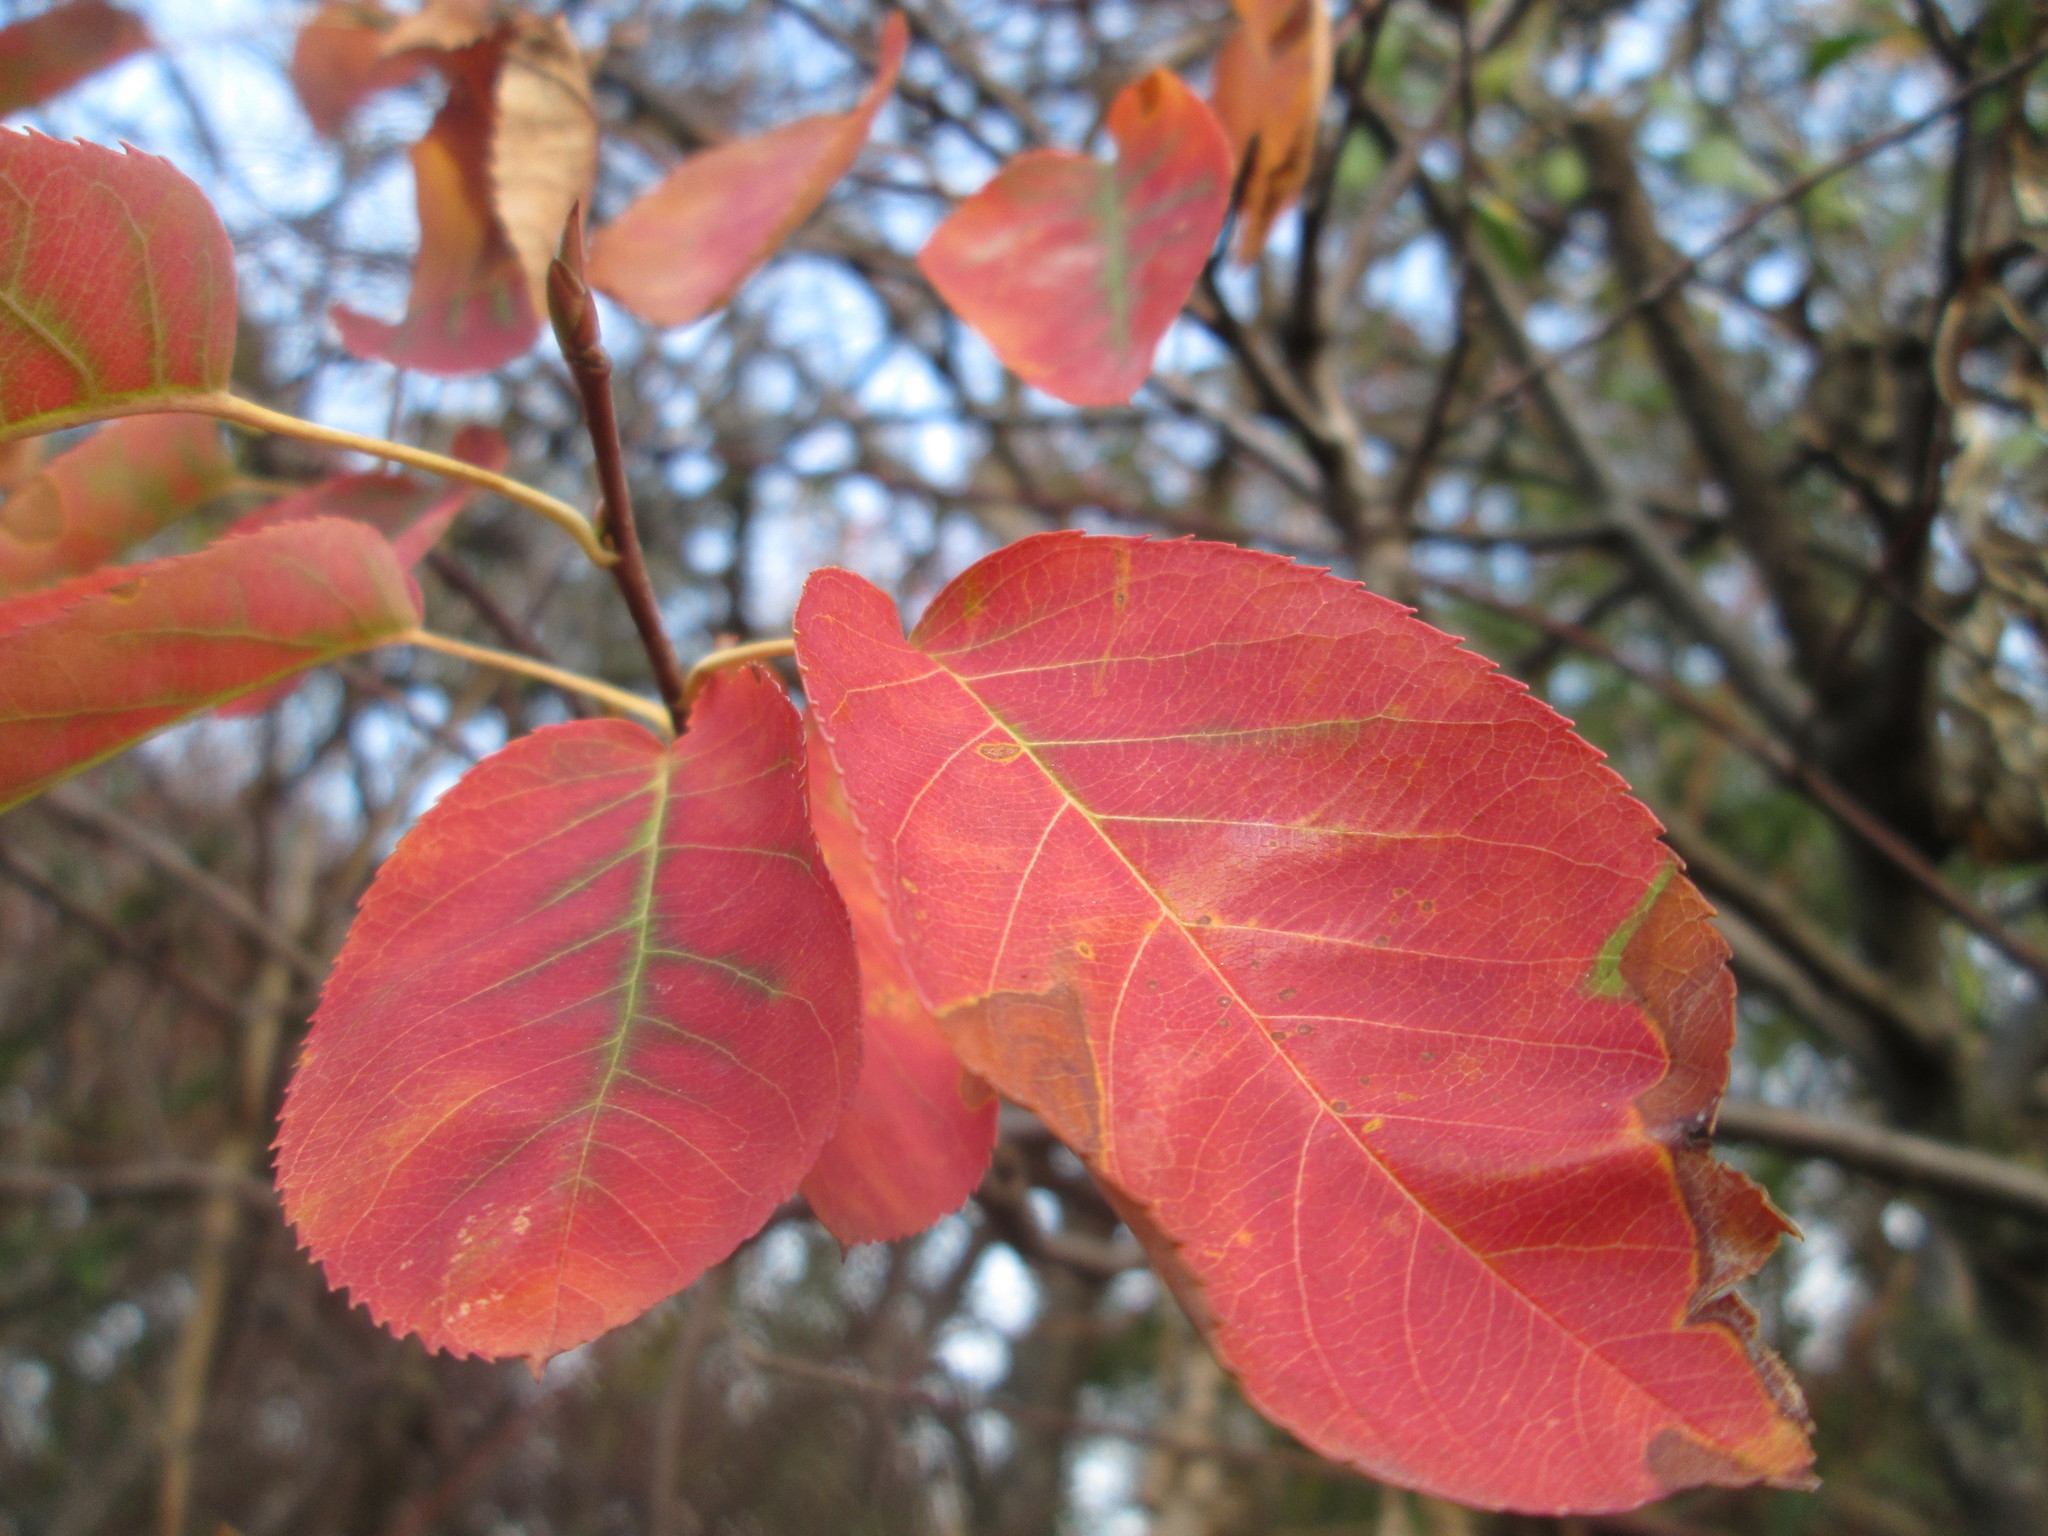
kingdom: Plantae
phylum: Tracheophyta
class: Magnoliopsida
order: Rosales
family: Rosaceae
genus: Amelanchier
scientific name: Amelanchier lamarckii
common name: Juneberry
